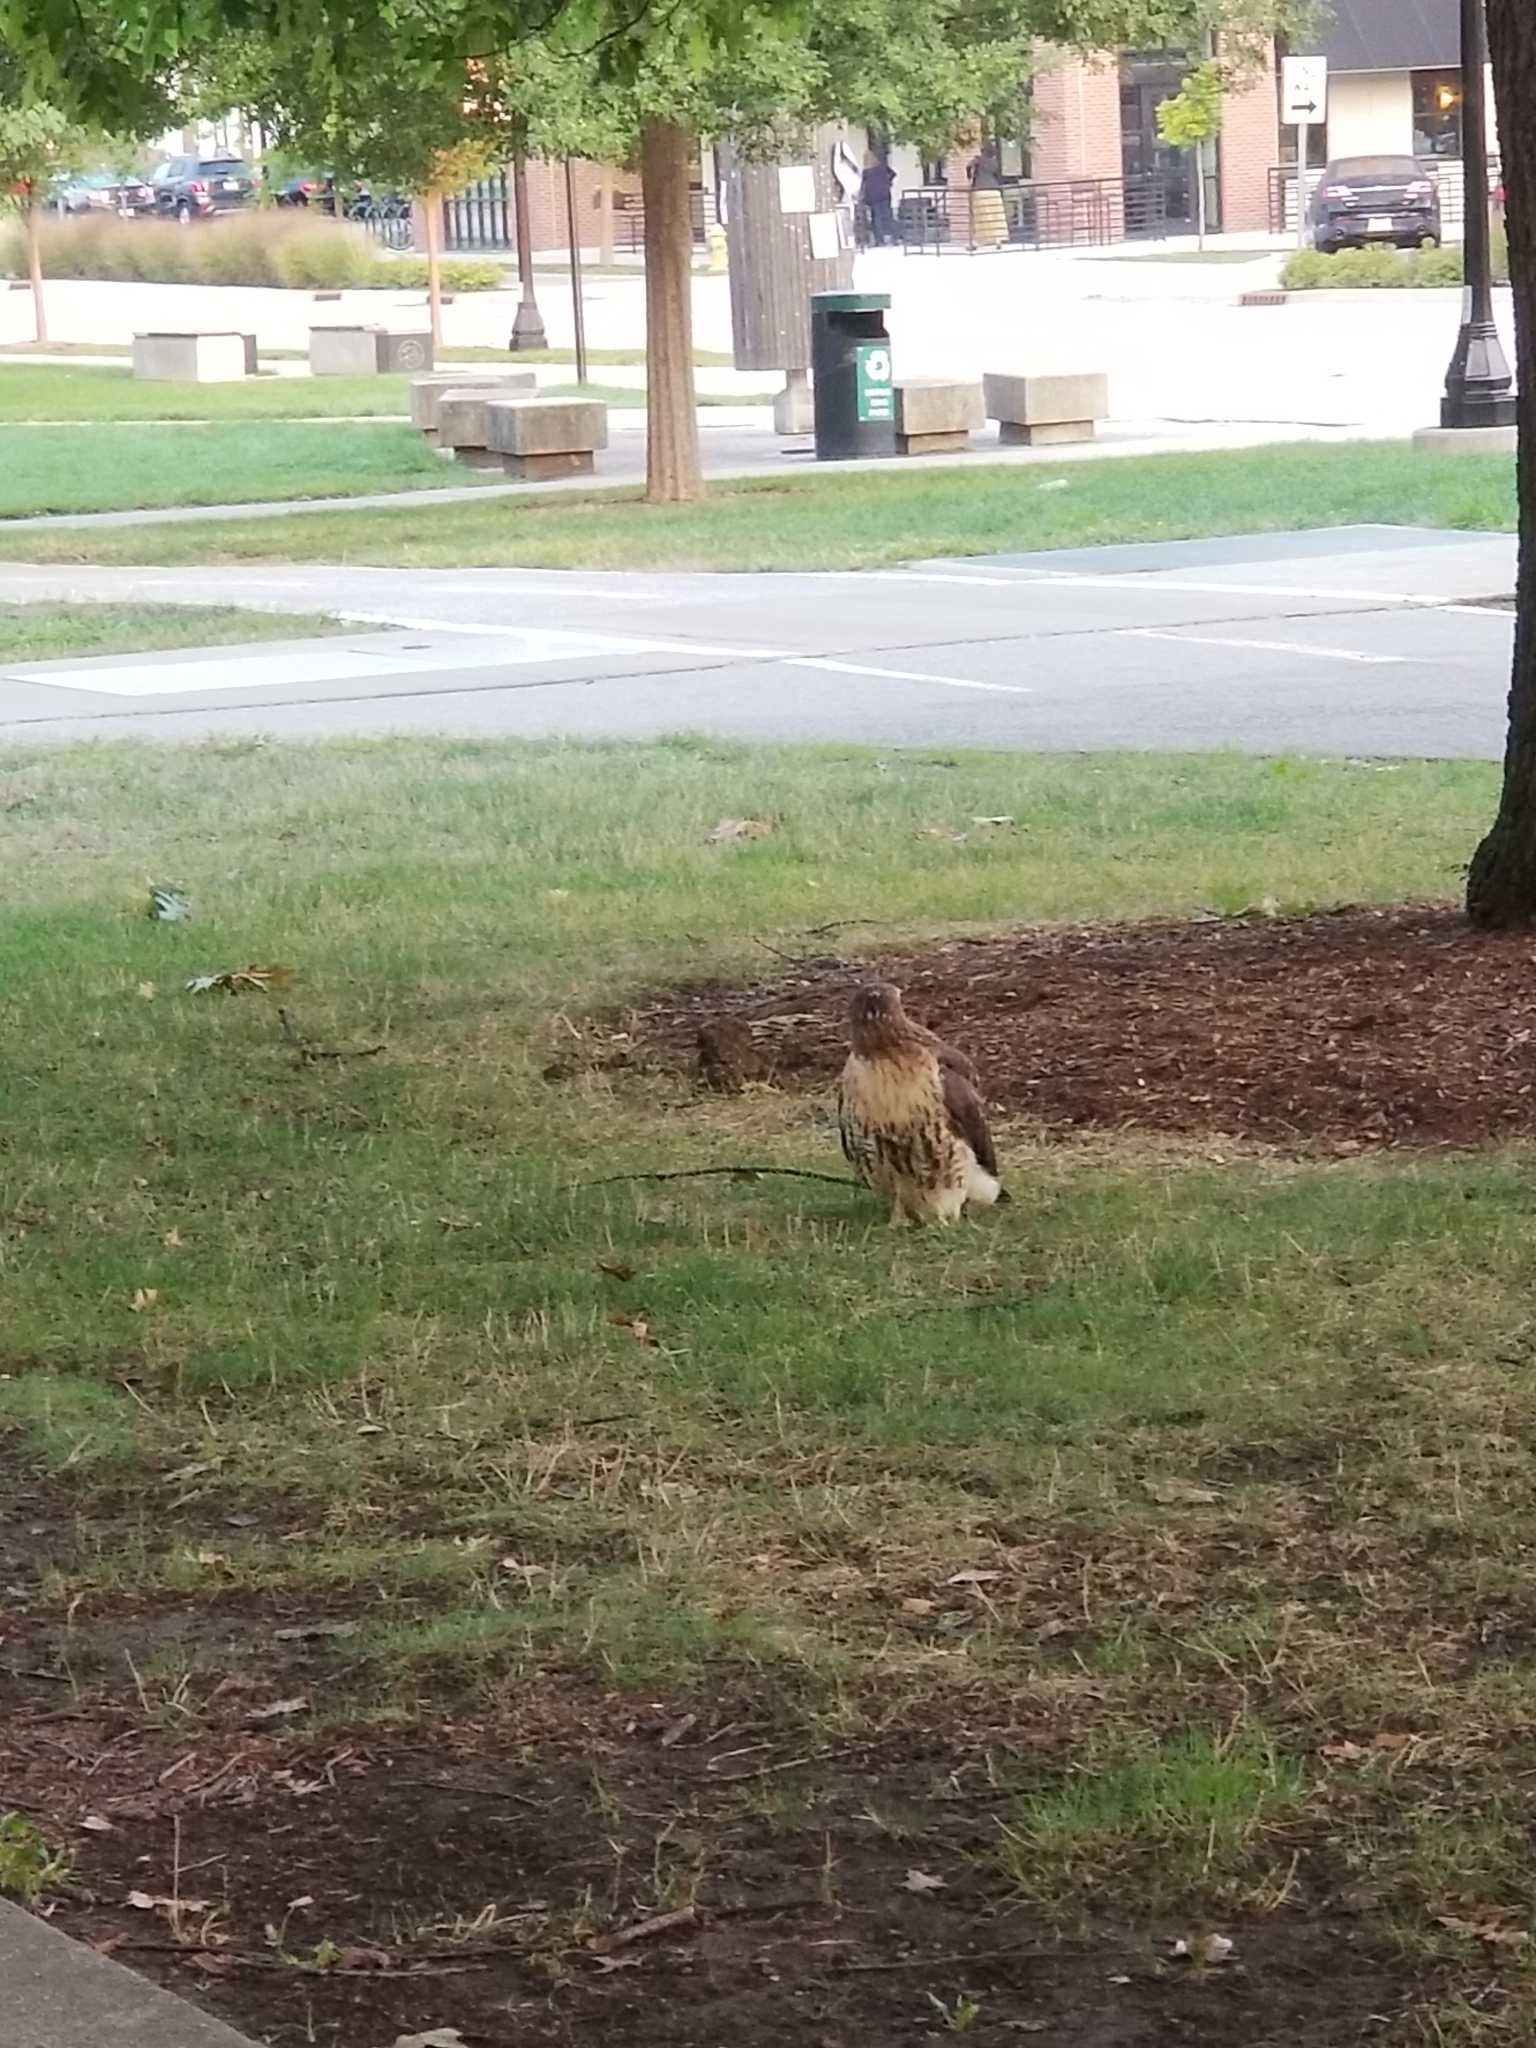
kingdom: Animalia
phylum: Chordata
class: Aves
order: Accipitriformes
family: Accipitridae
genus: Buteo
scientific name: Buteo jamaicensis
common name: Red-tailed hawk
